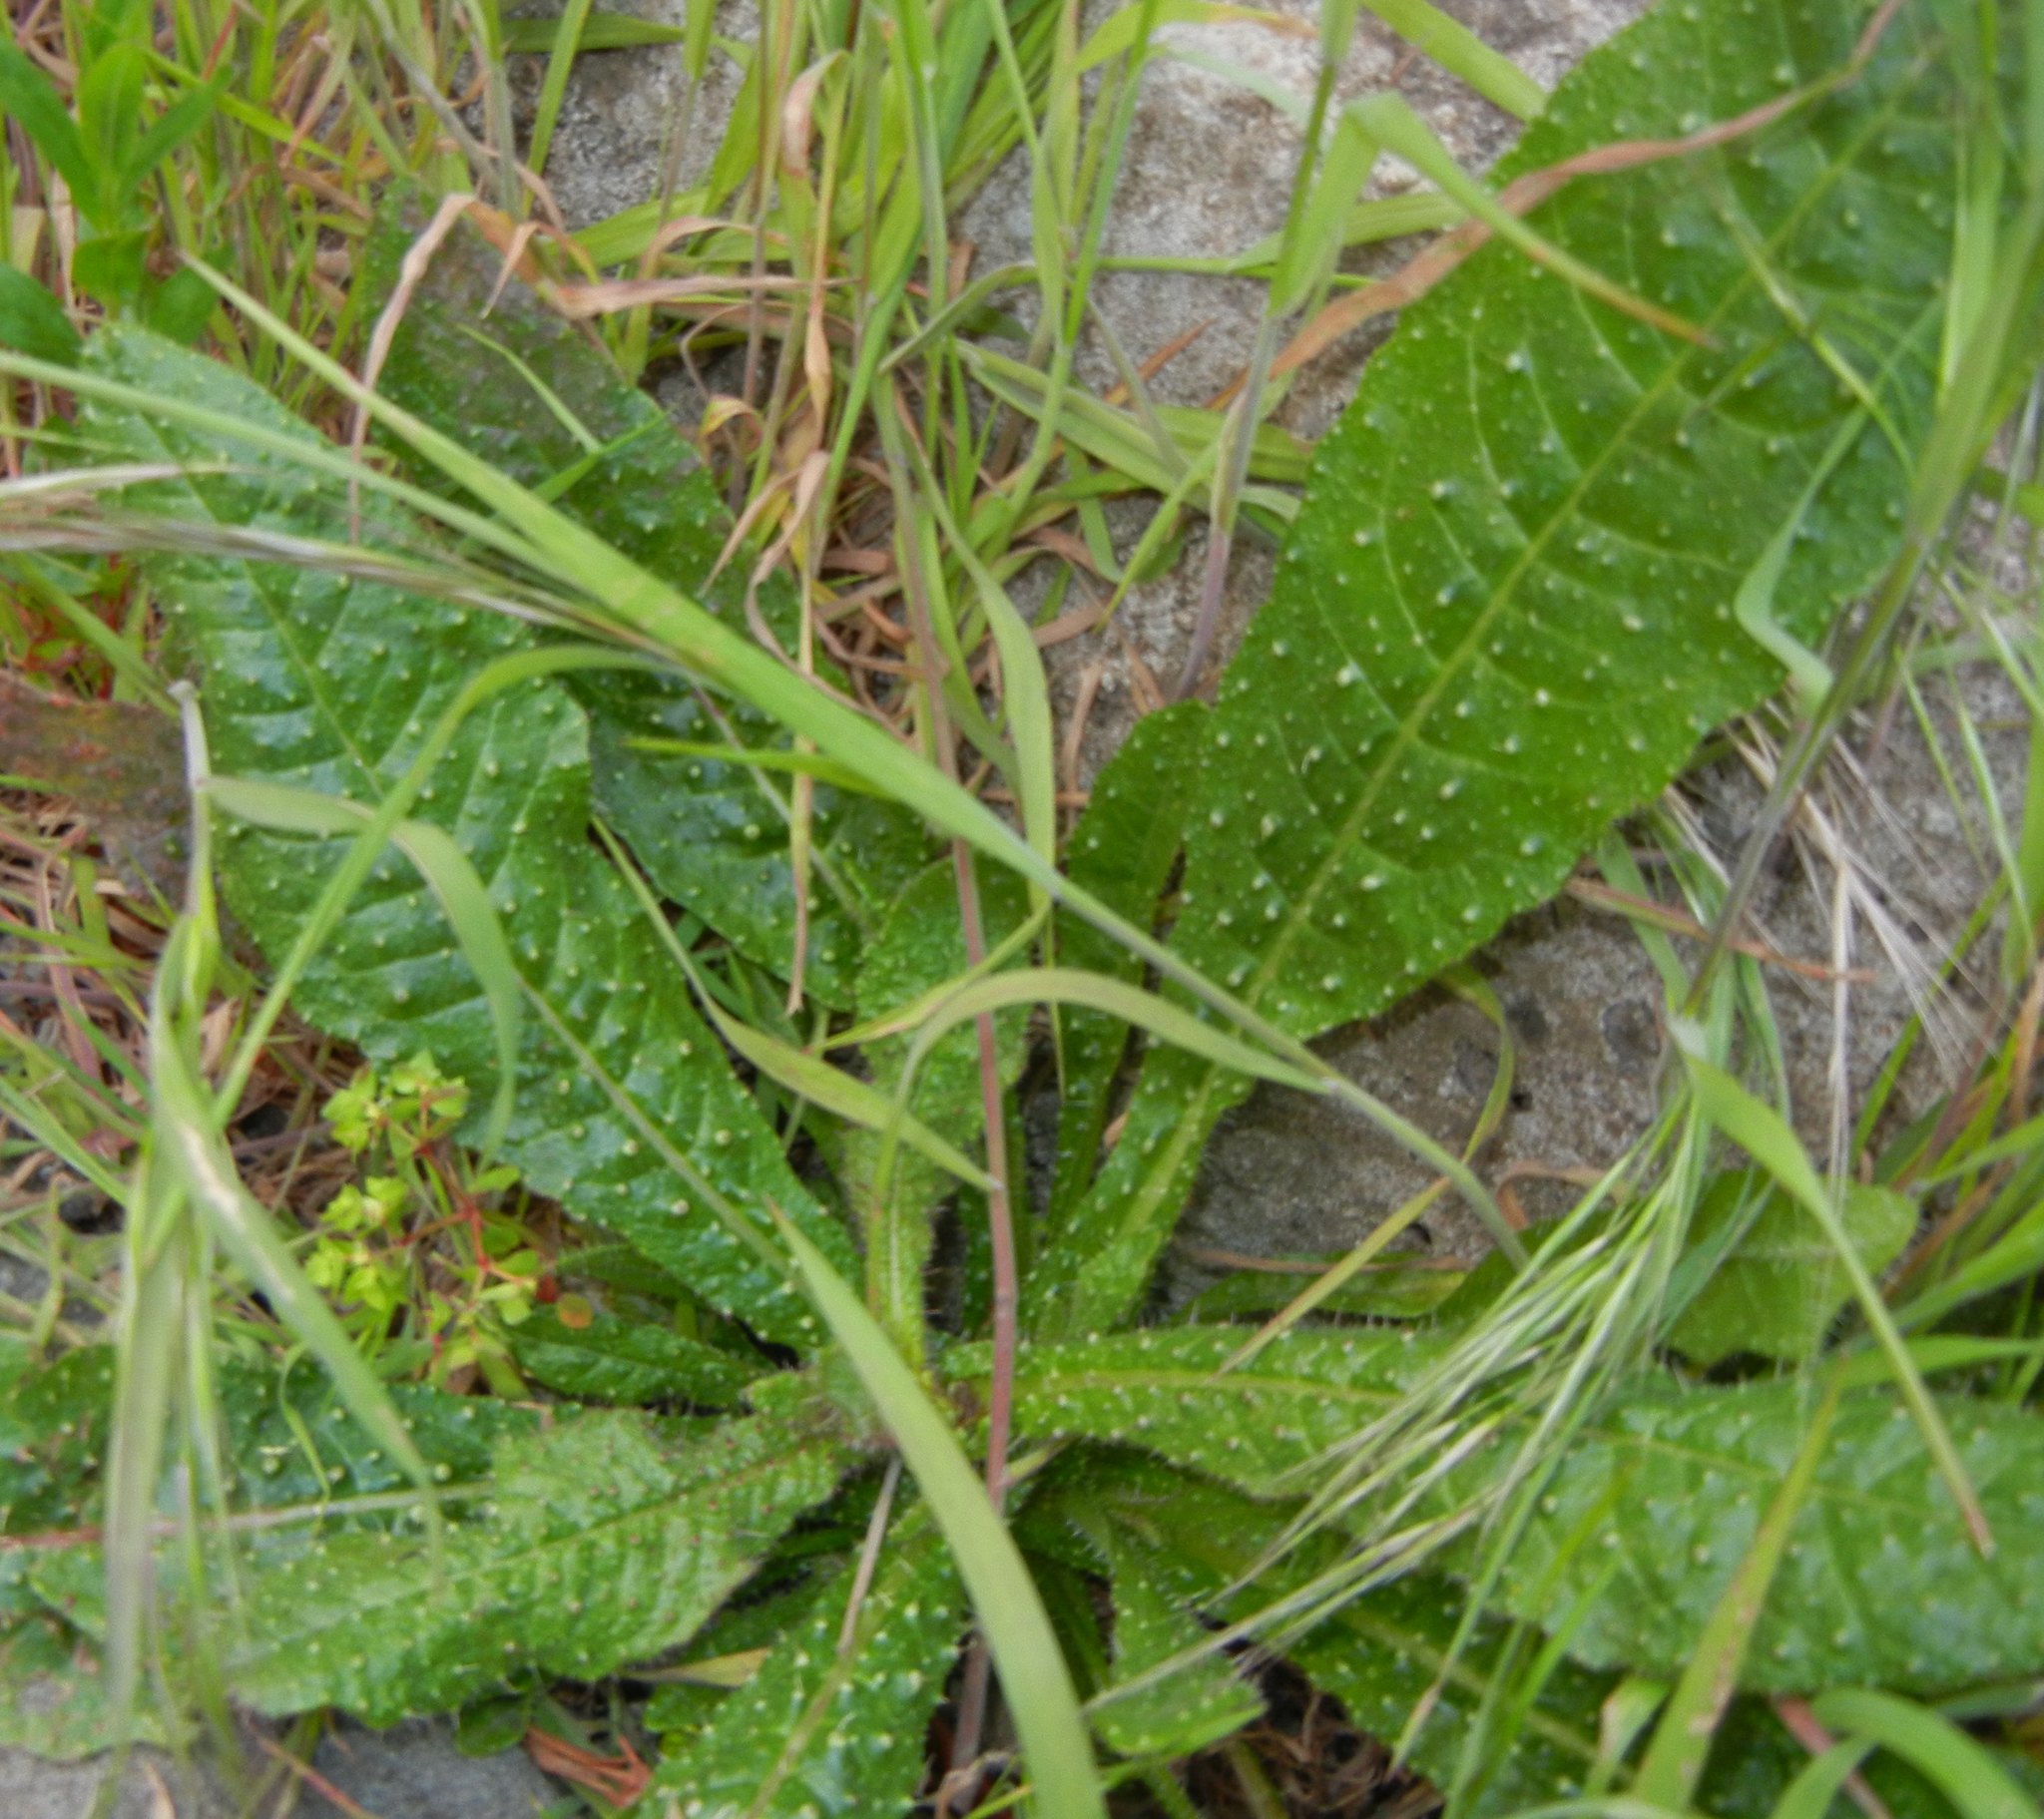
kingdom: Plantae
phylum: Tracheophyta
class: Magnoliopsida
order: Asterales
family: Asteraceae
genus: Helminthotheca
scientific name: Helminthotheca echioides
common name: Ox-tongue
